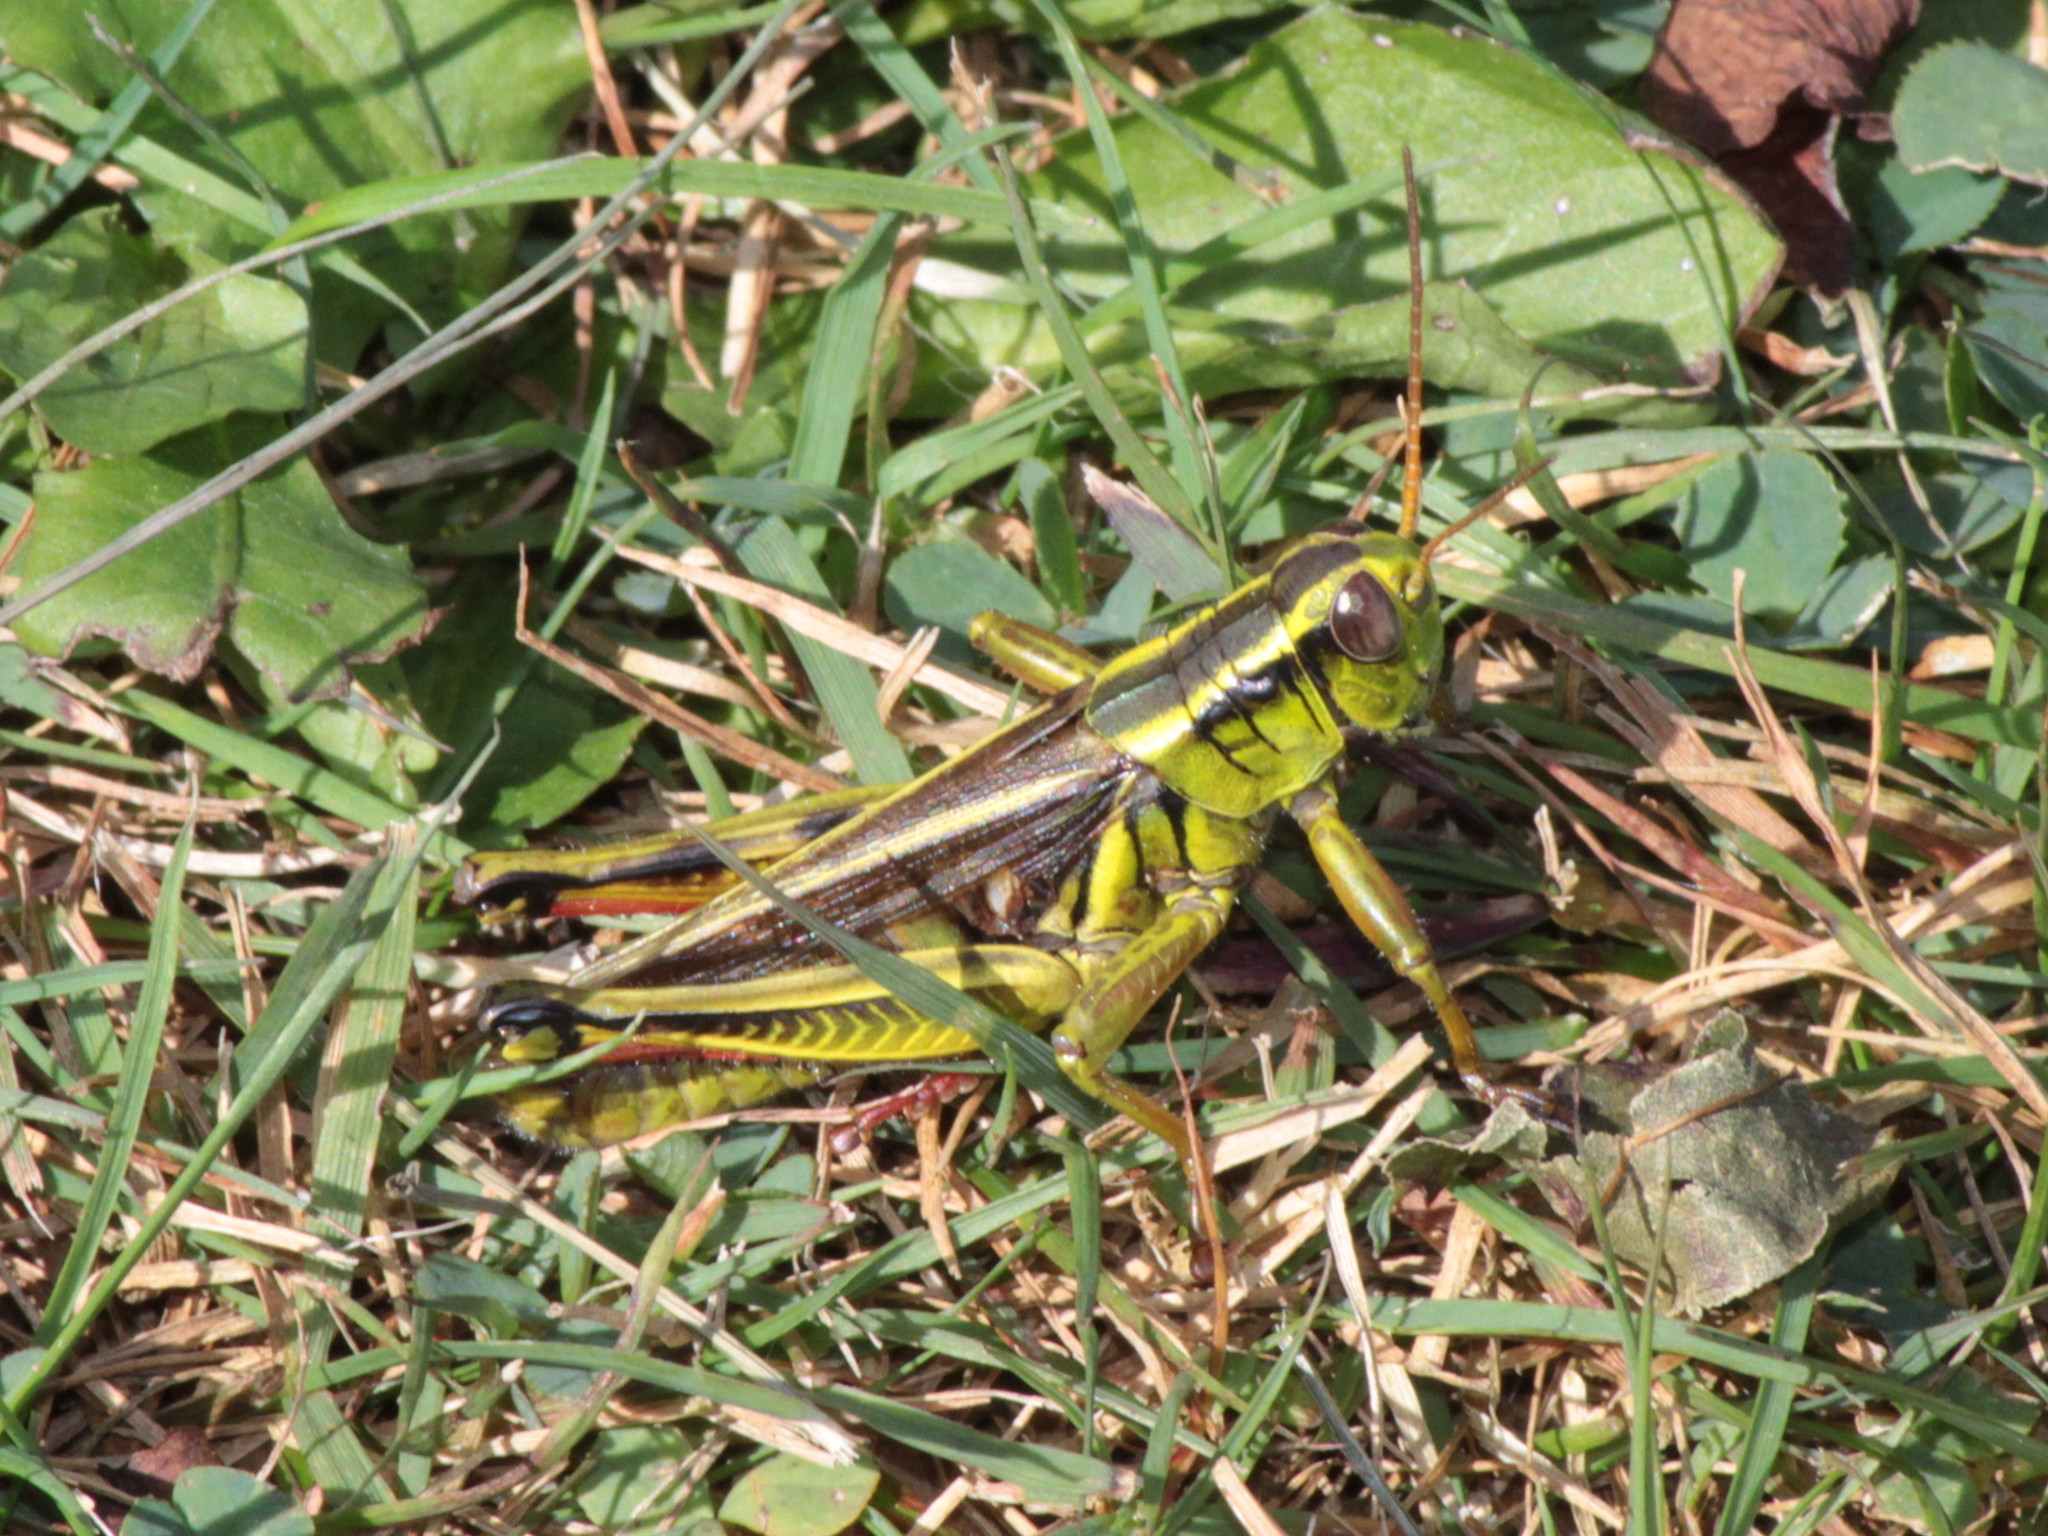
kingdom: Animalia
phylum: Arthropoda
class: Insecta
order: Orthoptera
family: Acrididae
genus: Melanoplus
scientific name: Melanoplus bivittatus
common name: Two-striped grasshopper
